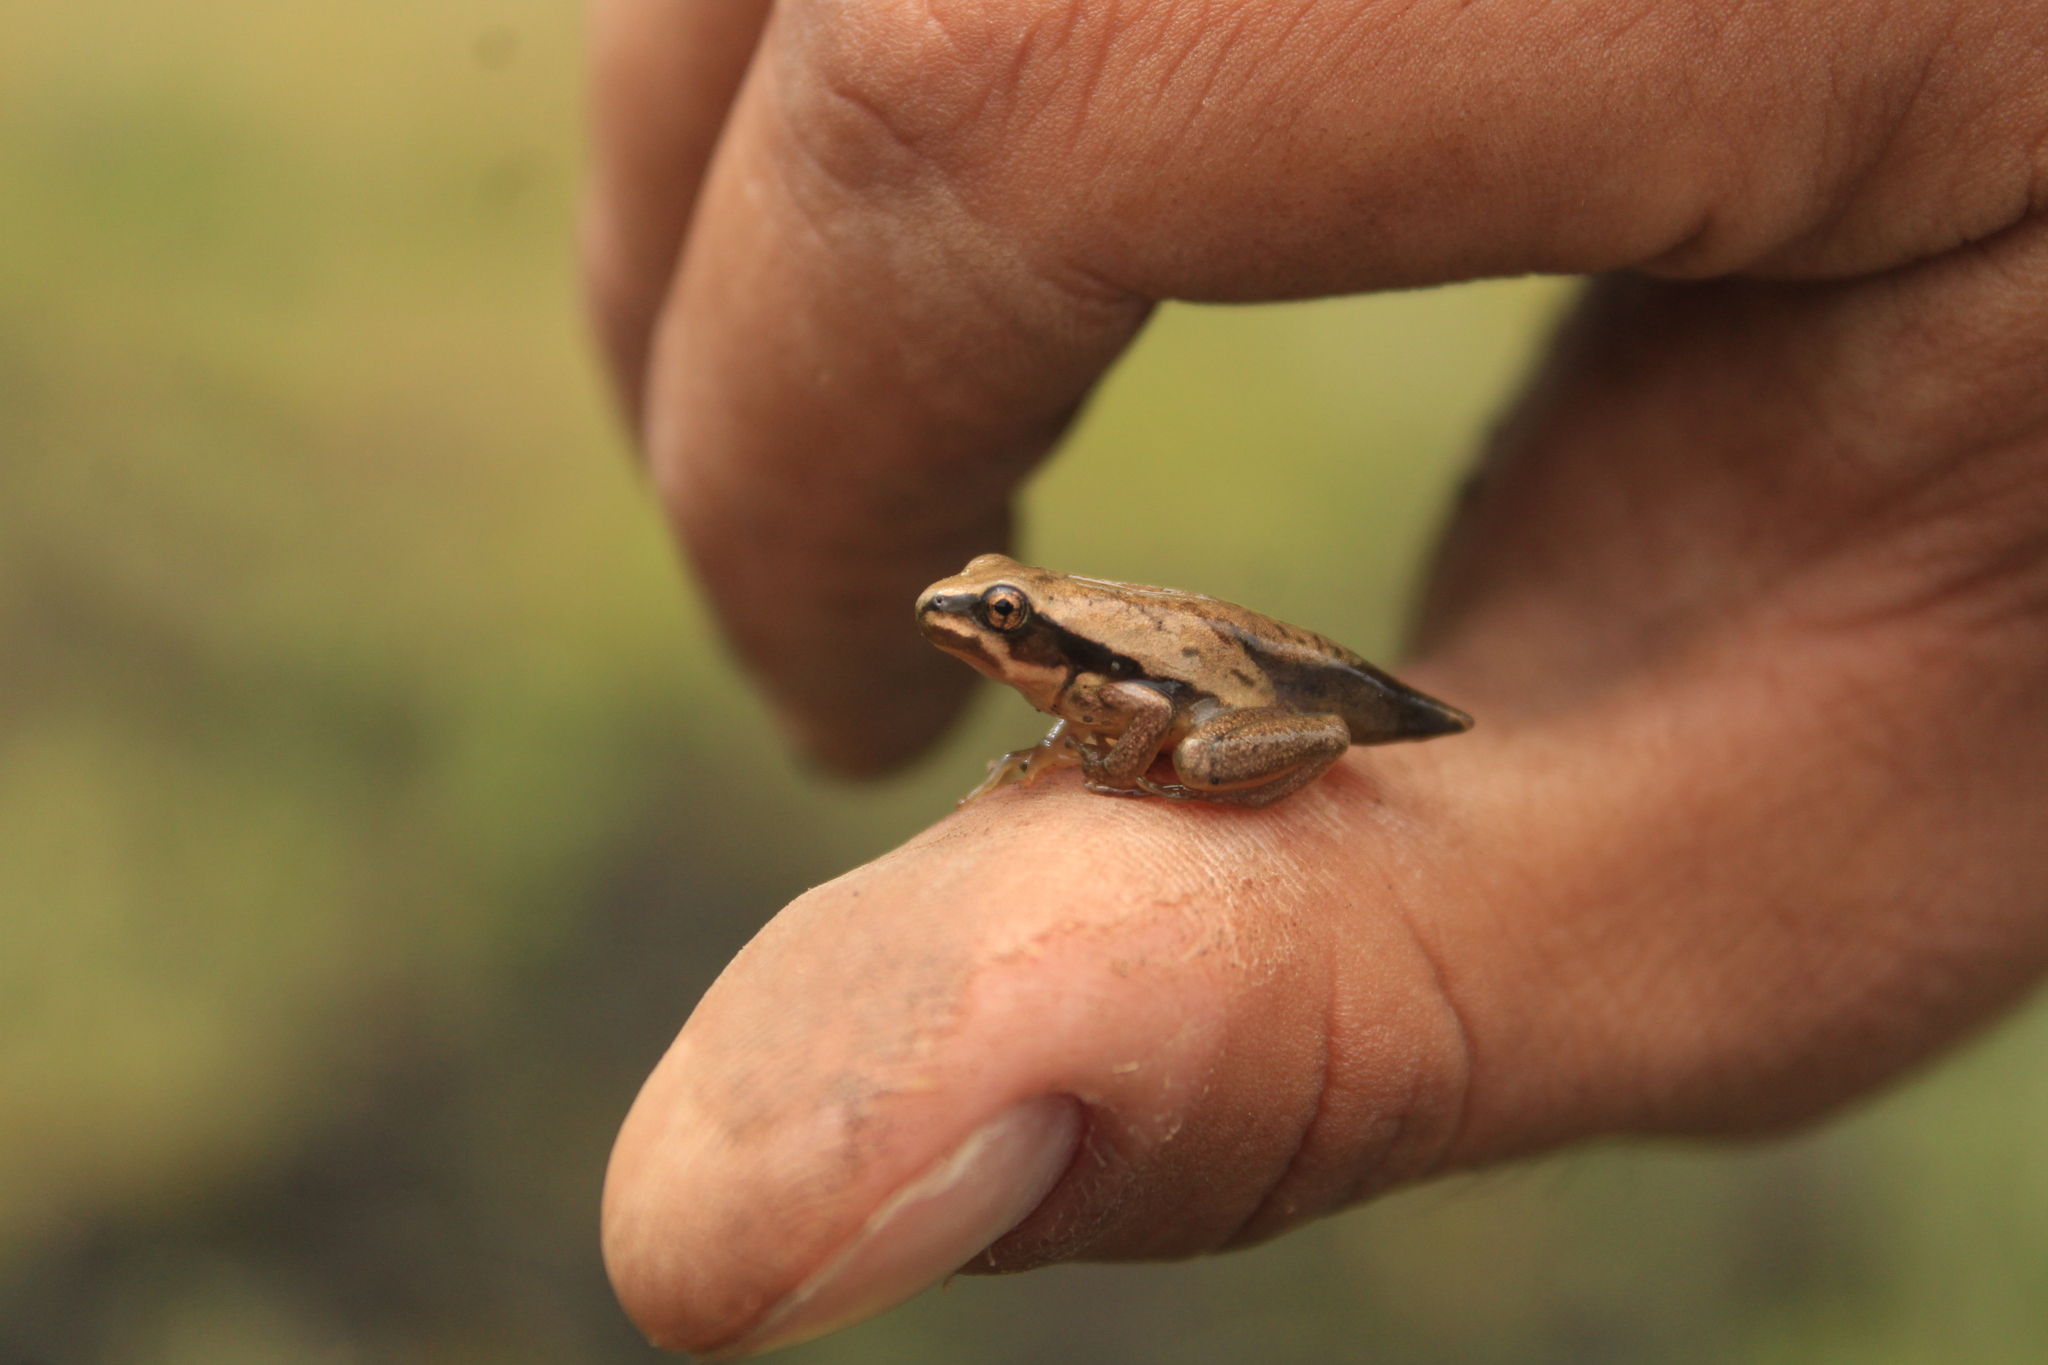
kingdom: Animalia
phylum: Chordata
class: Amphibia
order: Anura
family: Hylidae
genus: Dryophytes
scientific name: Dryophytes eximius
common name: Mountain treefrog
